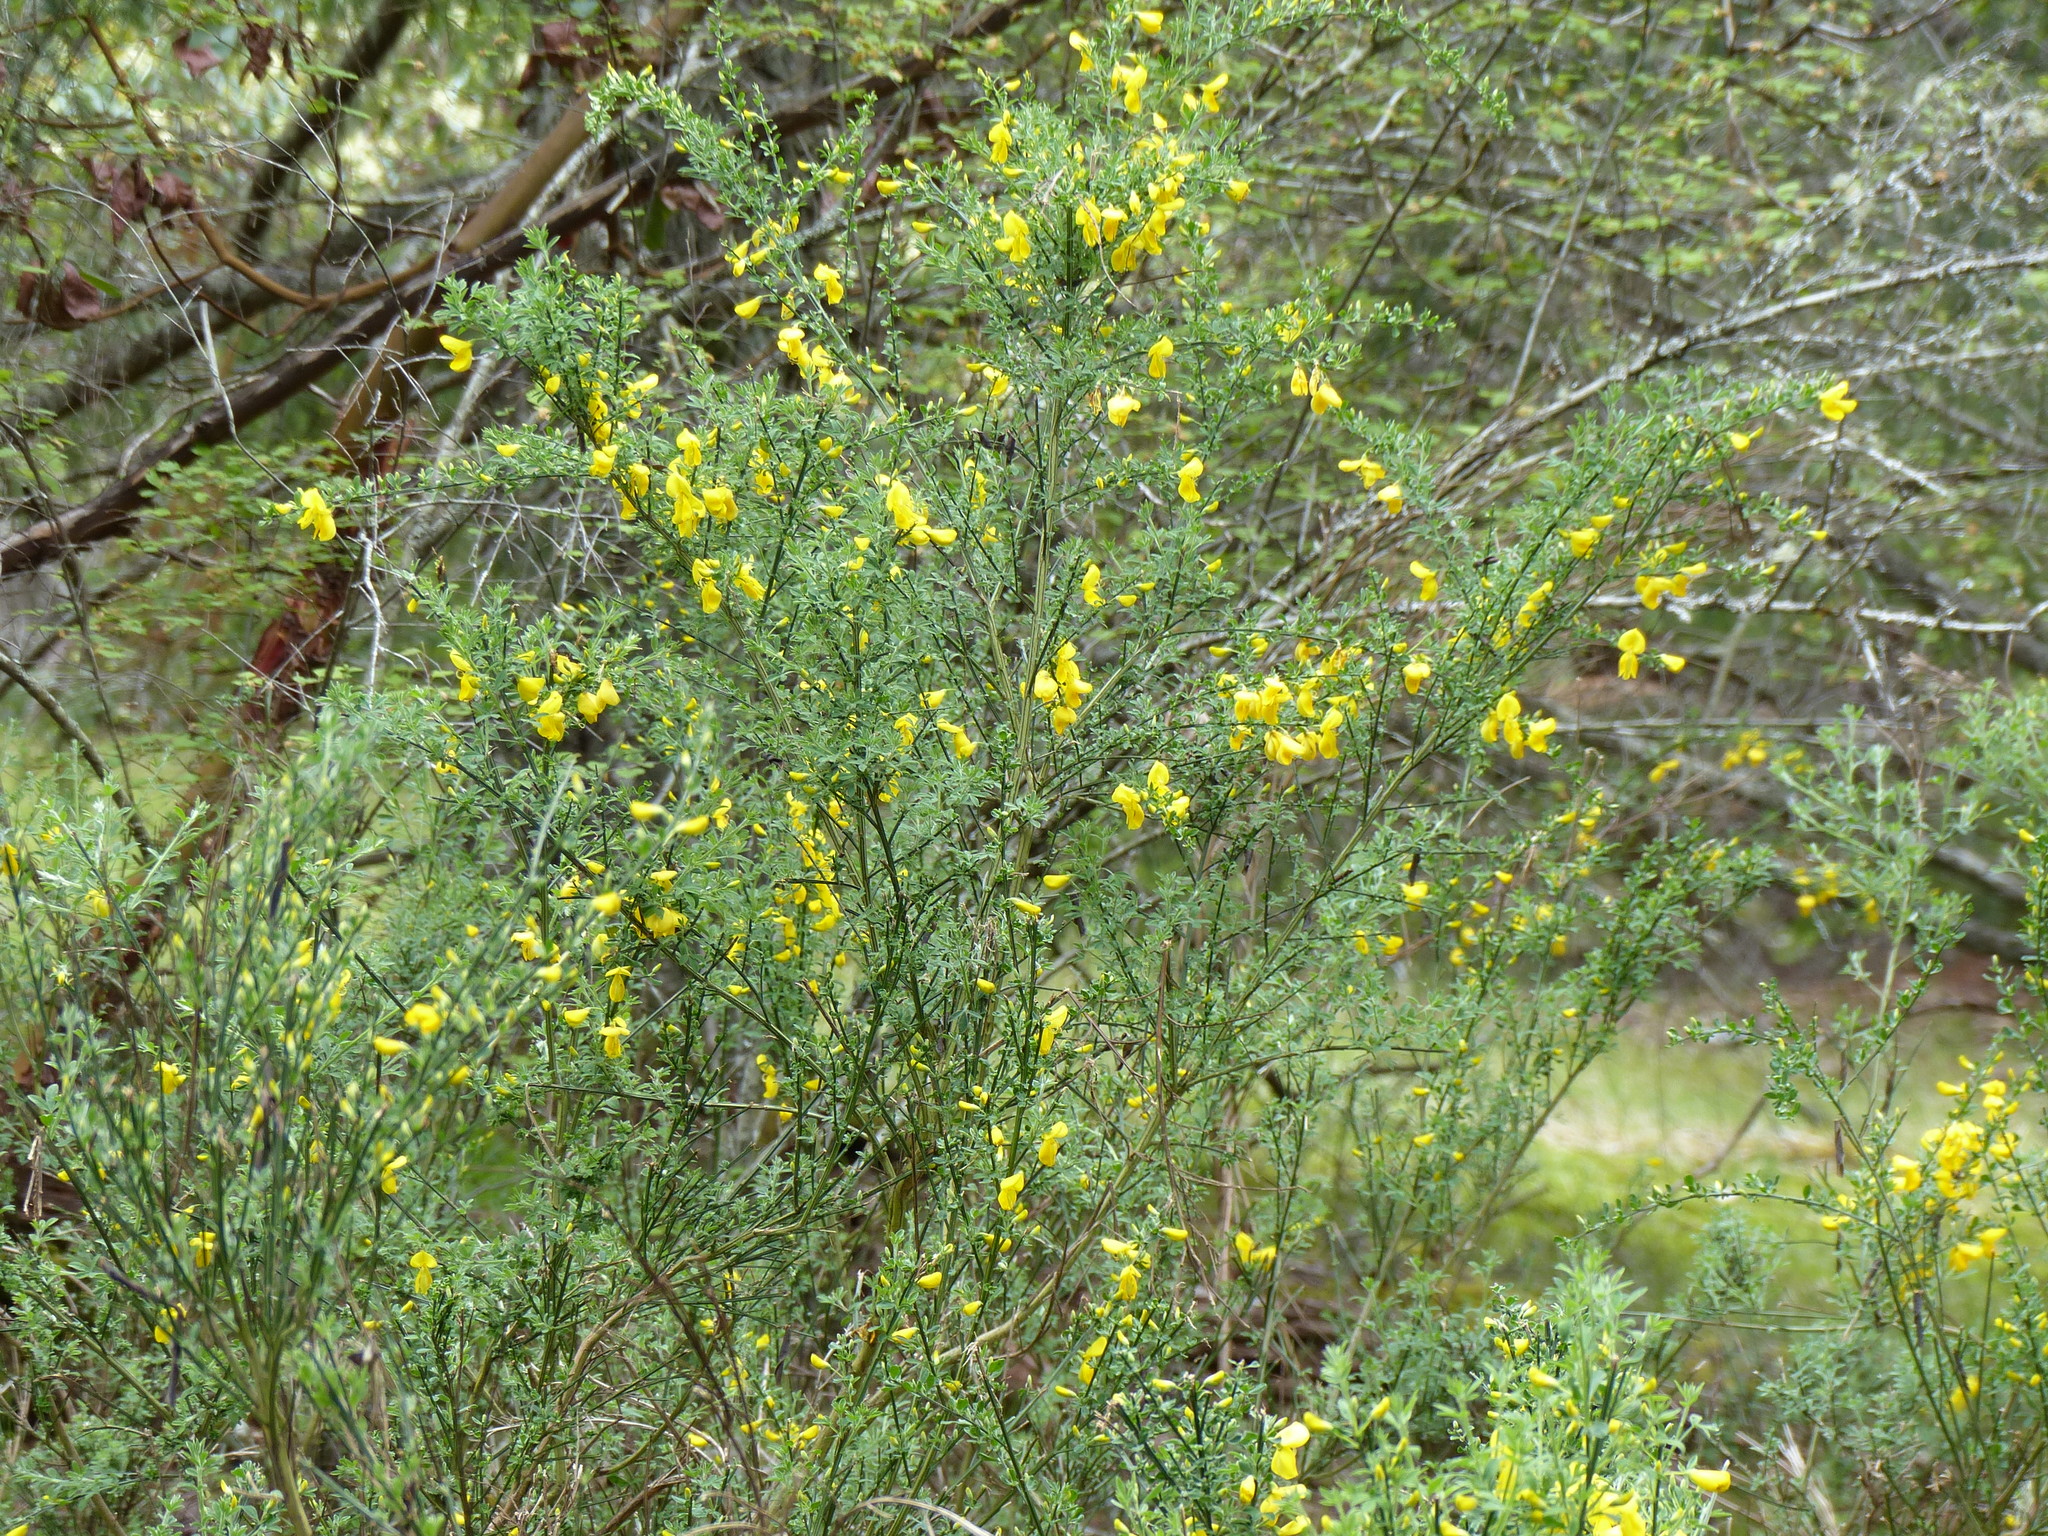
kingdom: Plantae
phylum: Tracheophyta
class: Magnoliopsida
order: Fabales
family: Fabaceae
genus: Cytisus
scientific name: Cytisus scoparius
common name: Scotch broom
